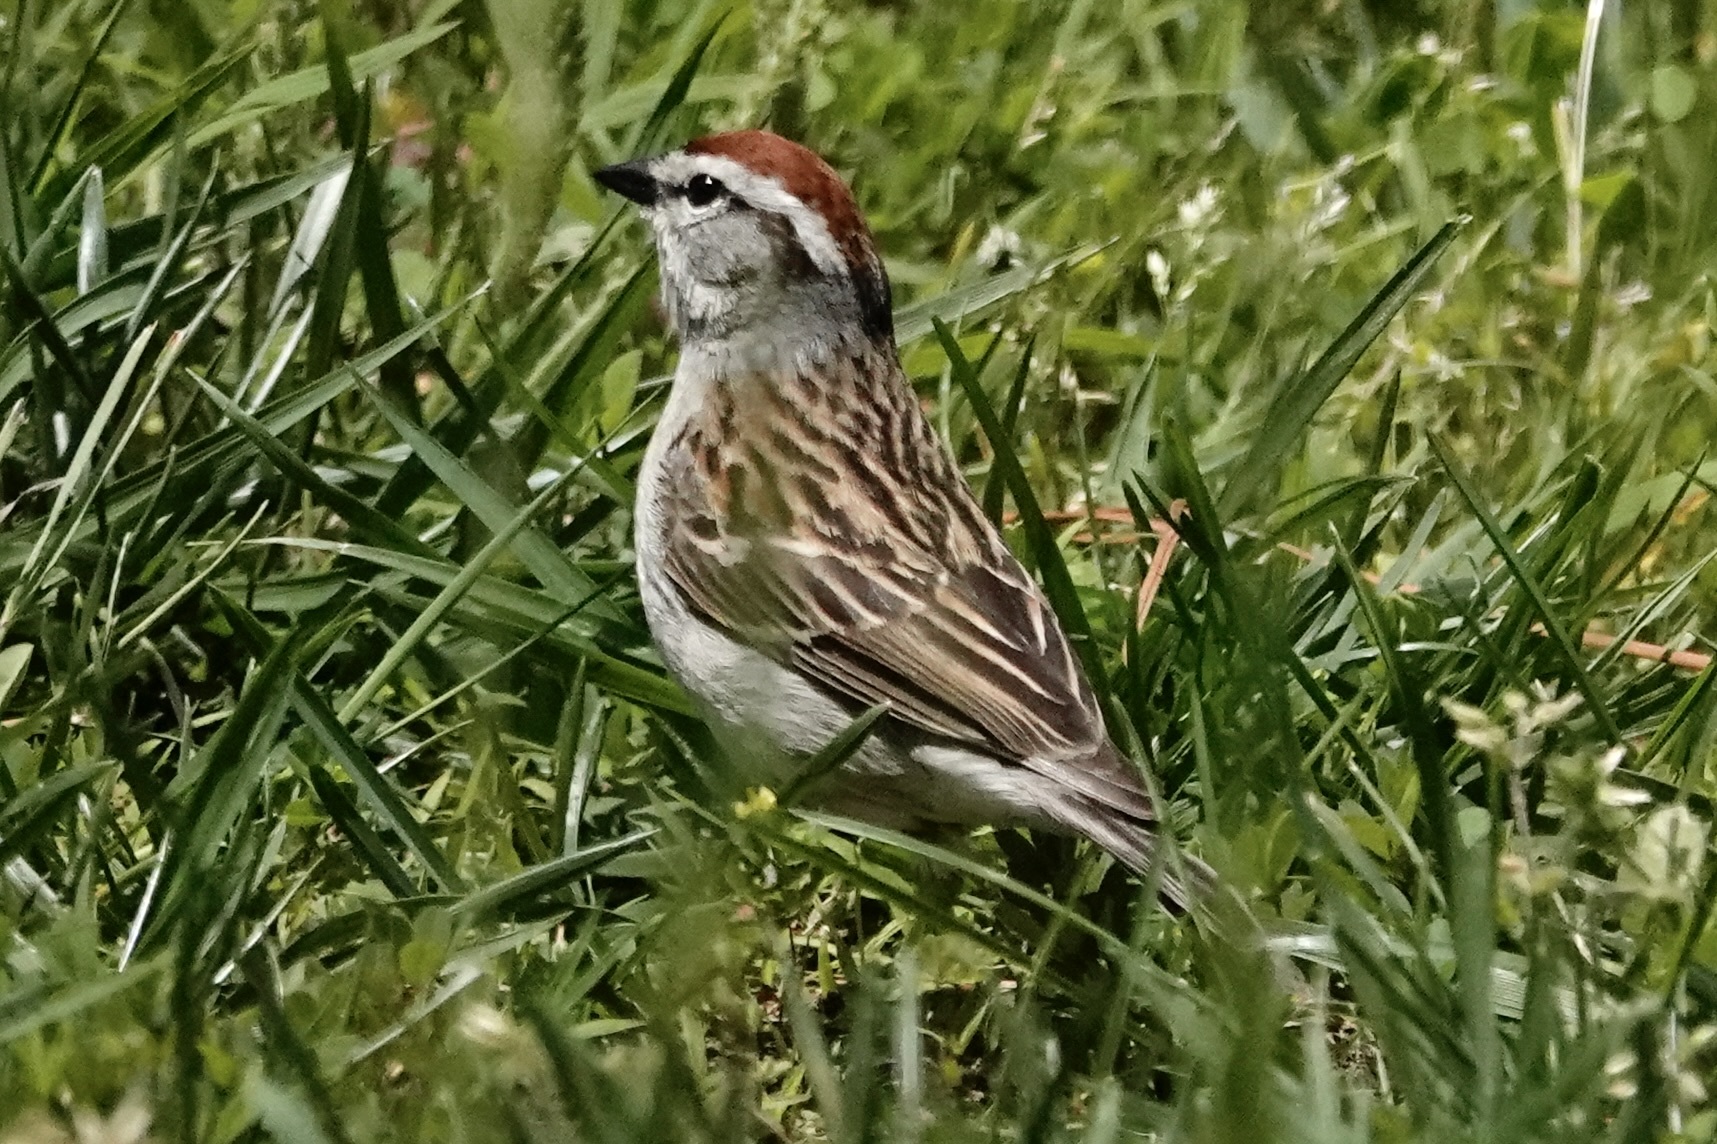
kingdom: Animalia
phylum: Chordata
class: Aves
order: Passeriformes
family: Passerellidae
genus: Spizella
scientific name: Spizella passerina
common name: Chipping sparrow
